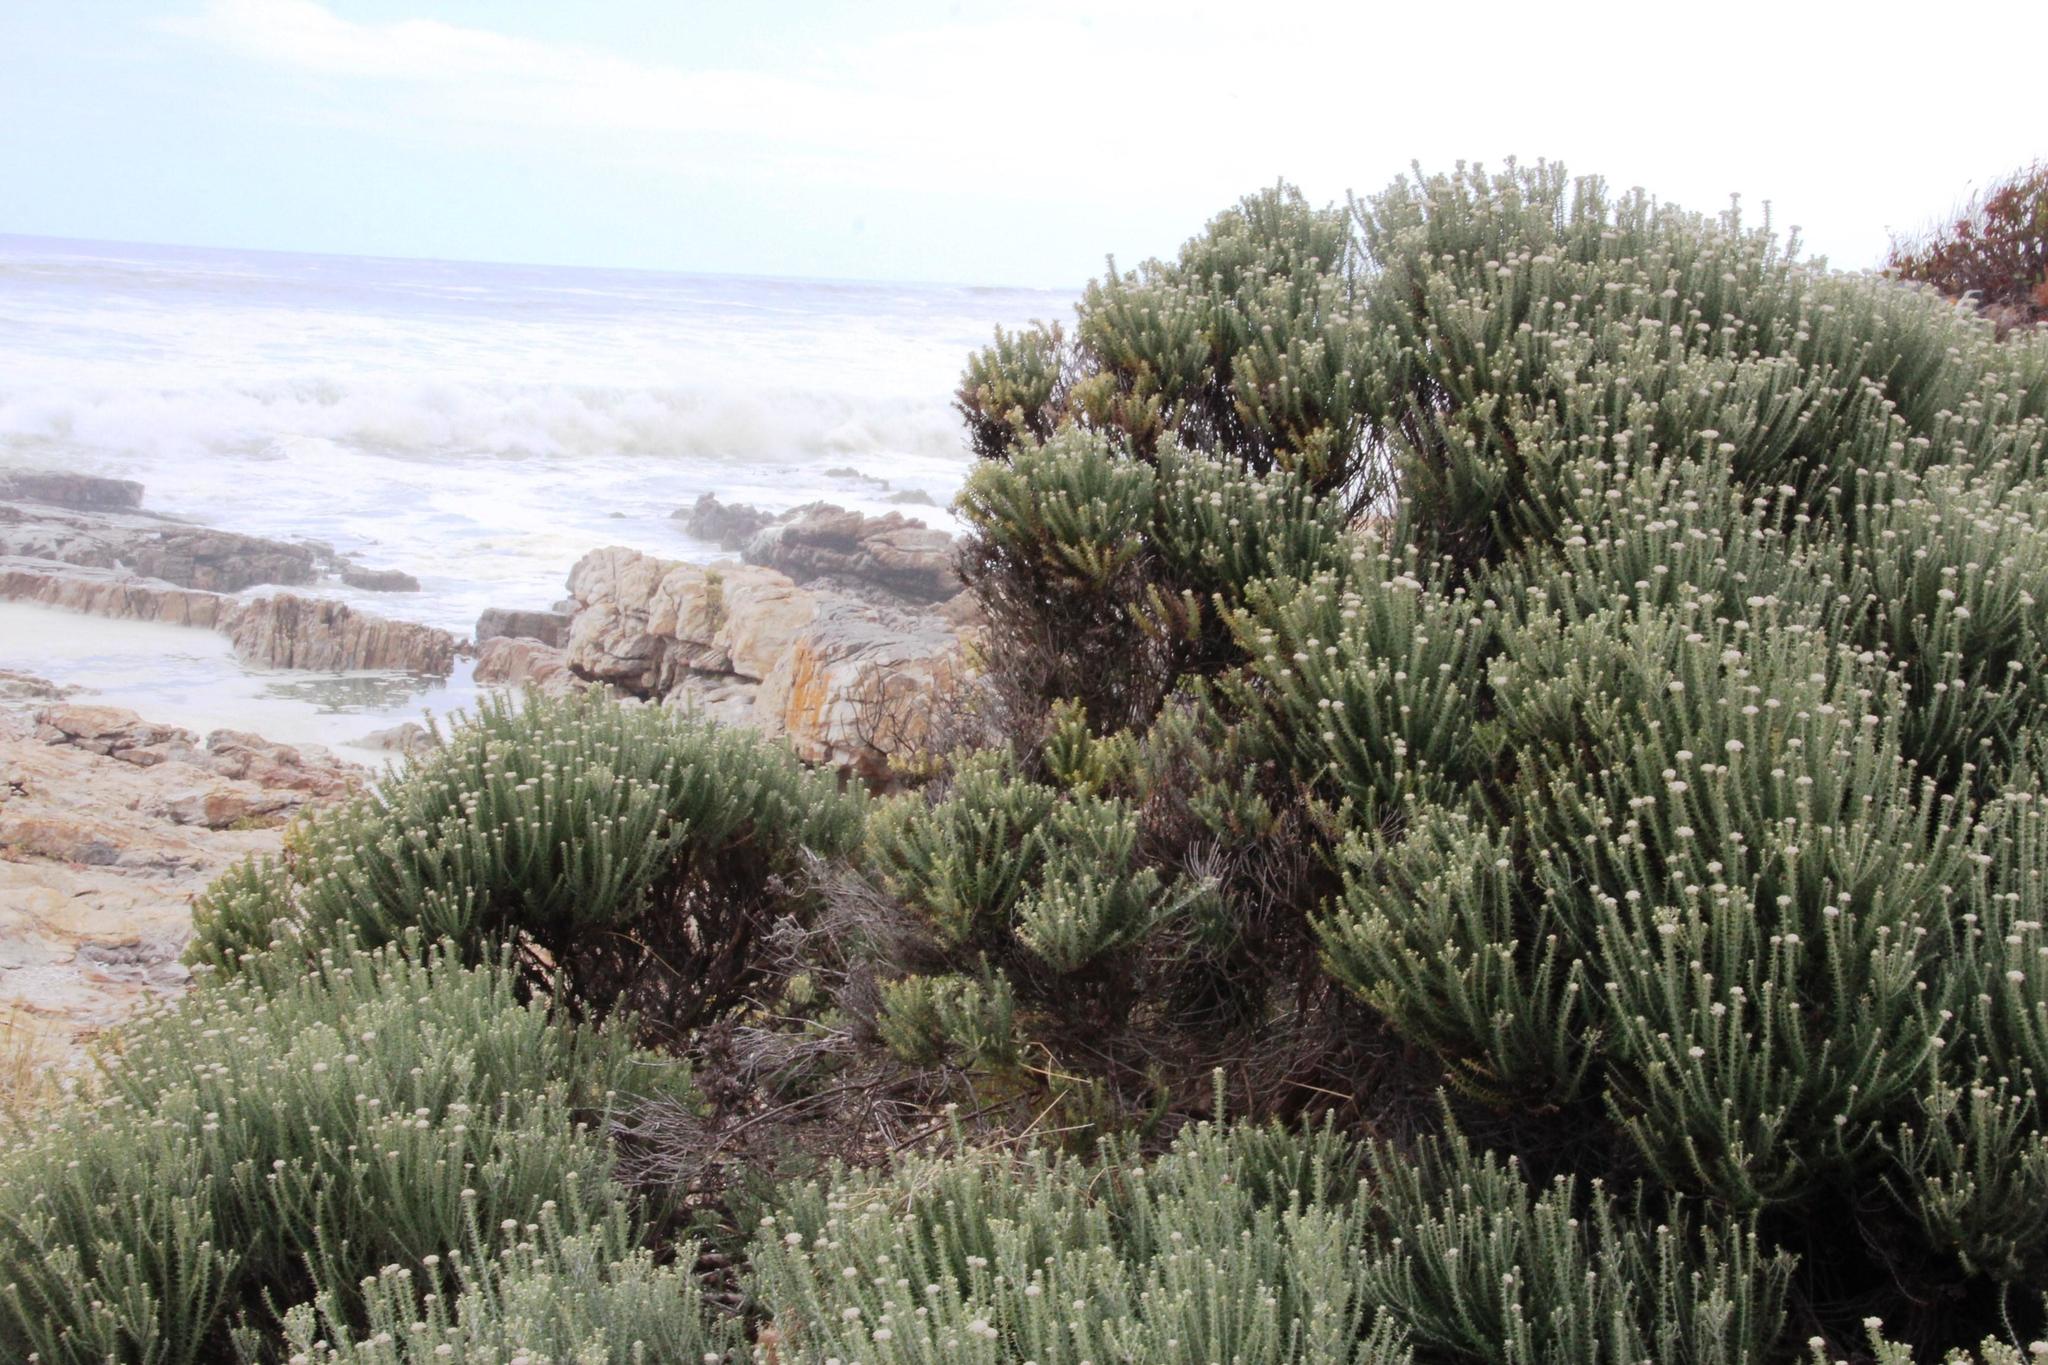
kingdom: Plantae
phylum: Tracheophyta
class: Magnoliopsida
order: Asterales
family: Asteraceae
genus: Metalasia
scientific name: Metalasia muricata
